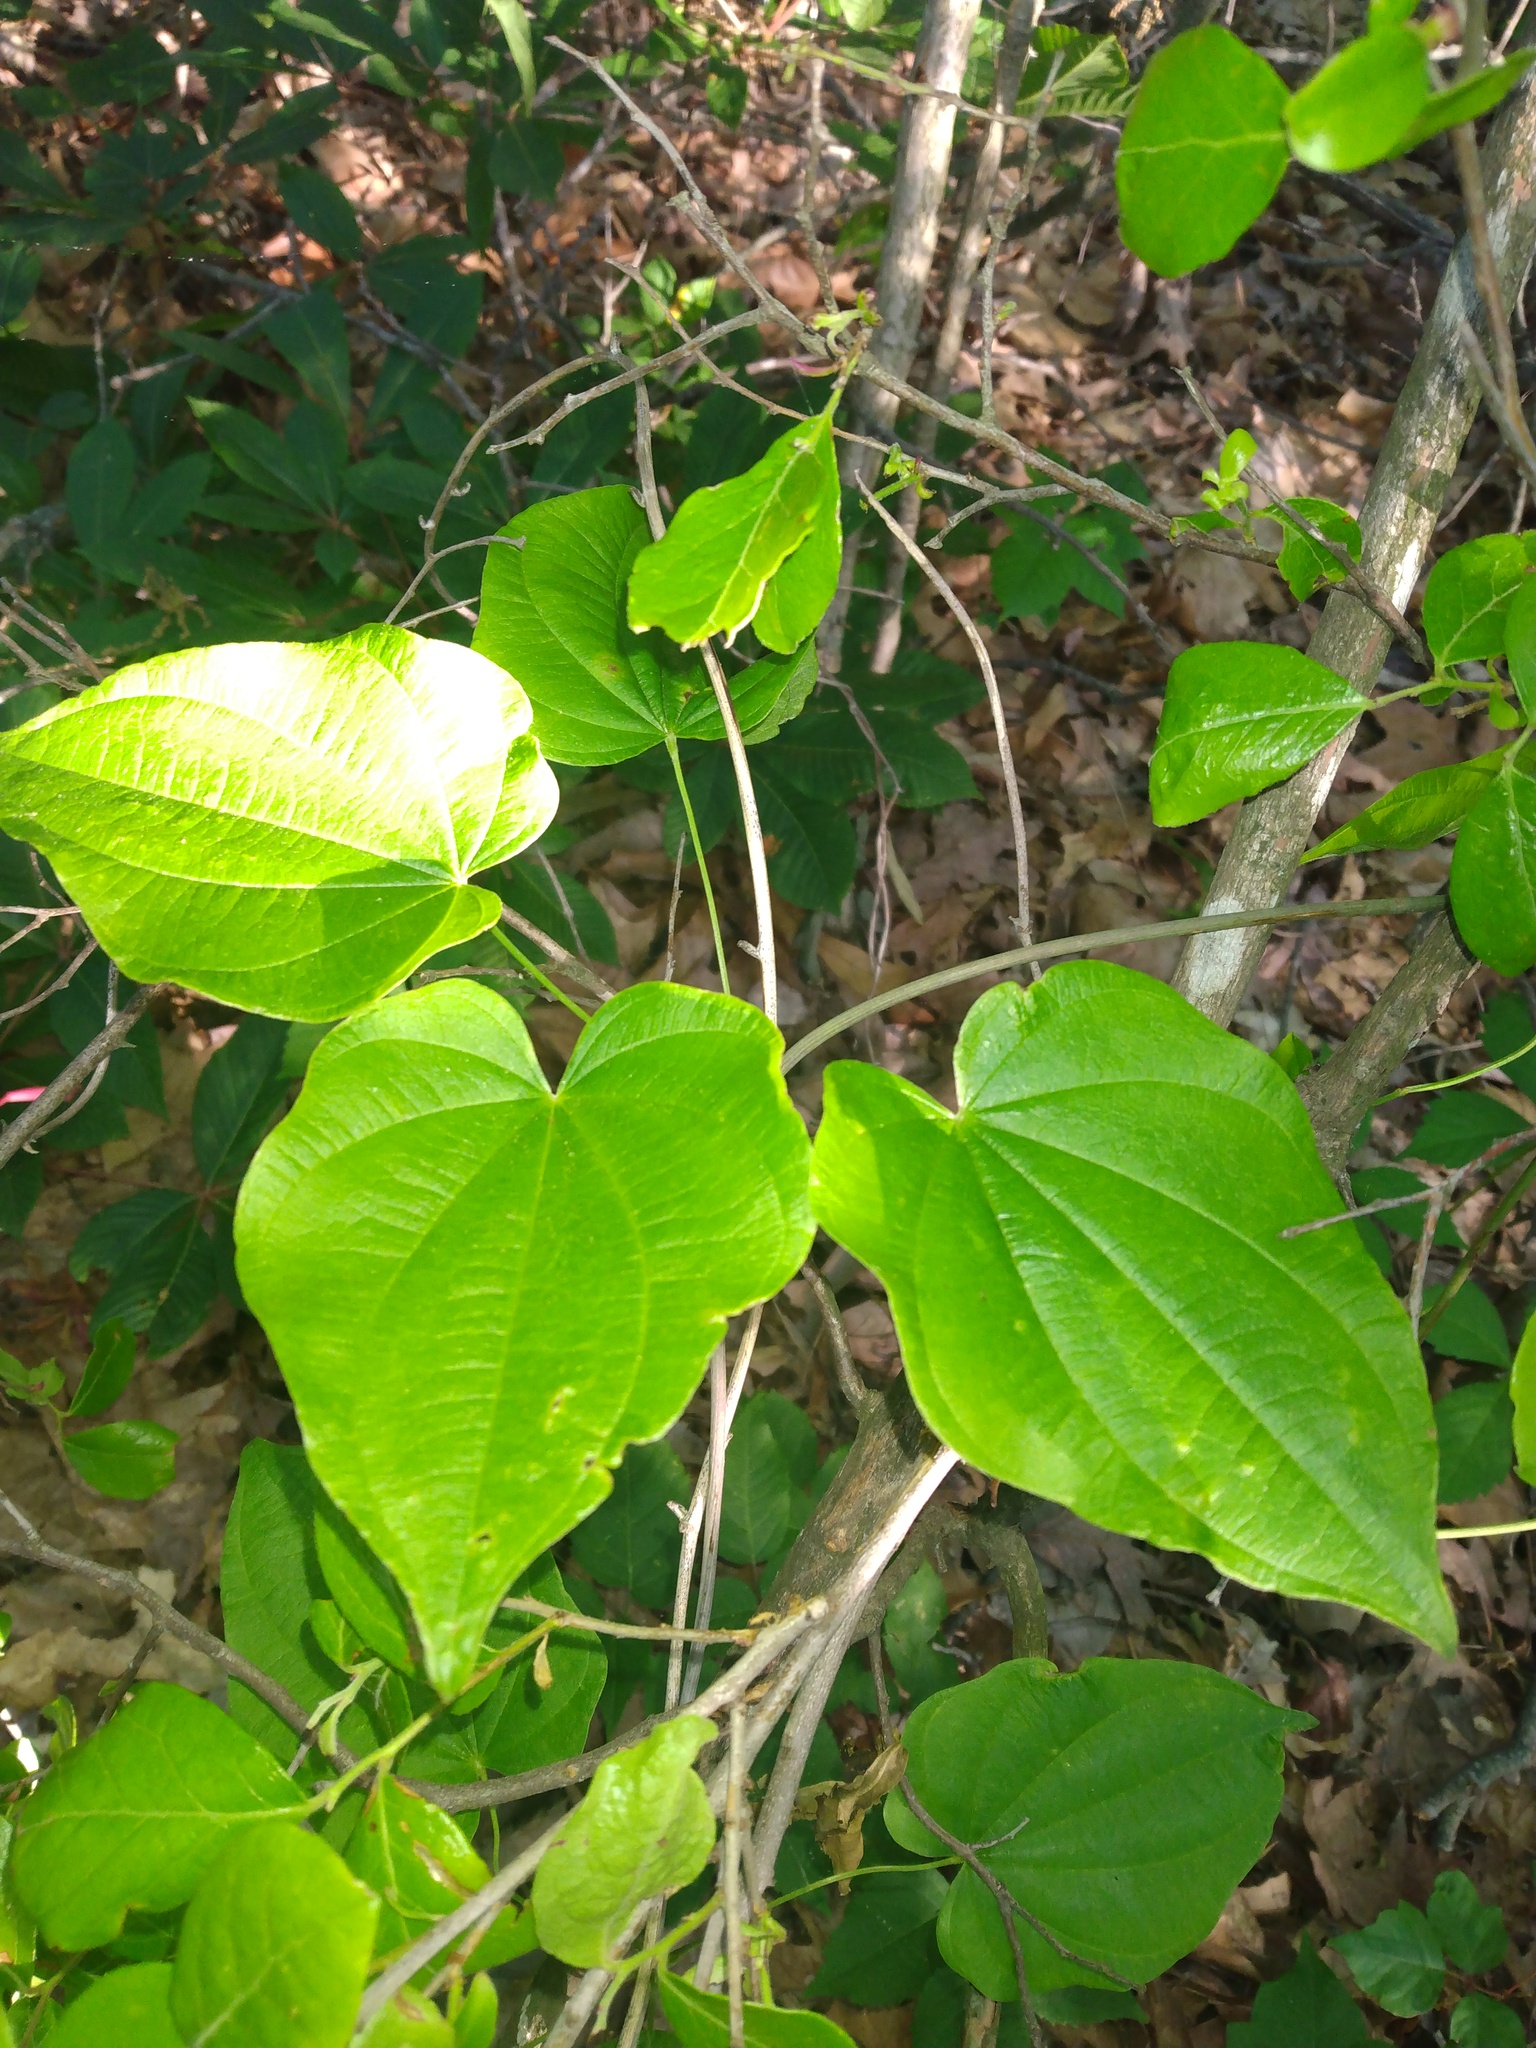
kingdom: Plantae
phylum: Tracheophyta
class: Liliopsida
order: Dioscoreales
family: Dioscoreaceae
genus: Dioscorea
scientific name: Dioscorea villosa
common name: Wild yam
